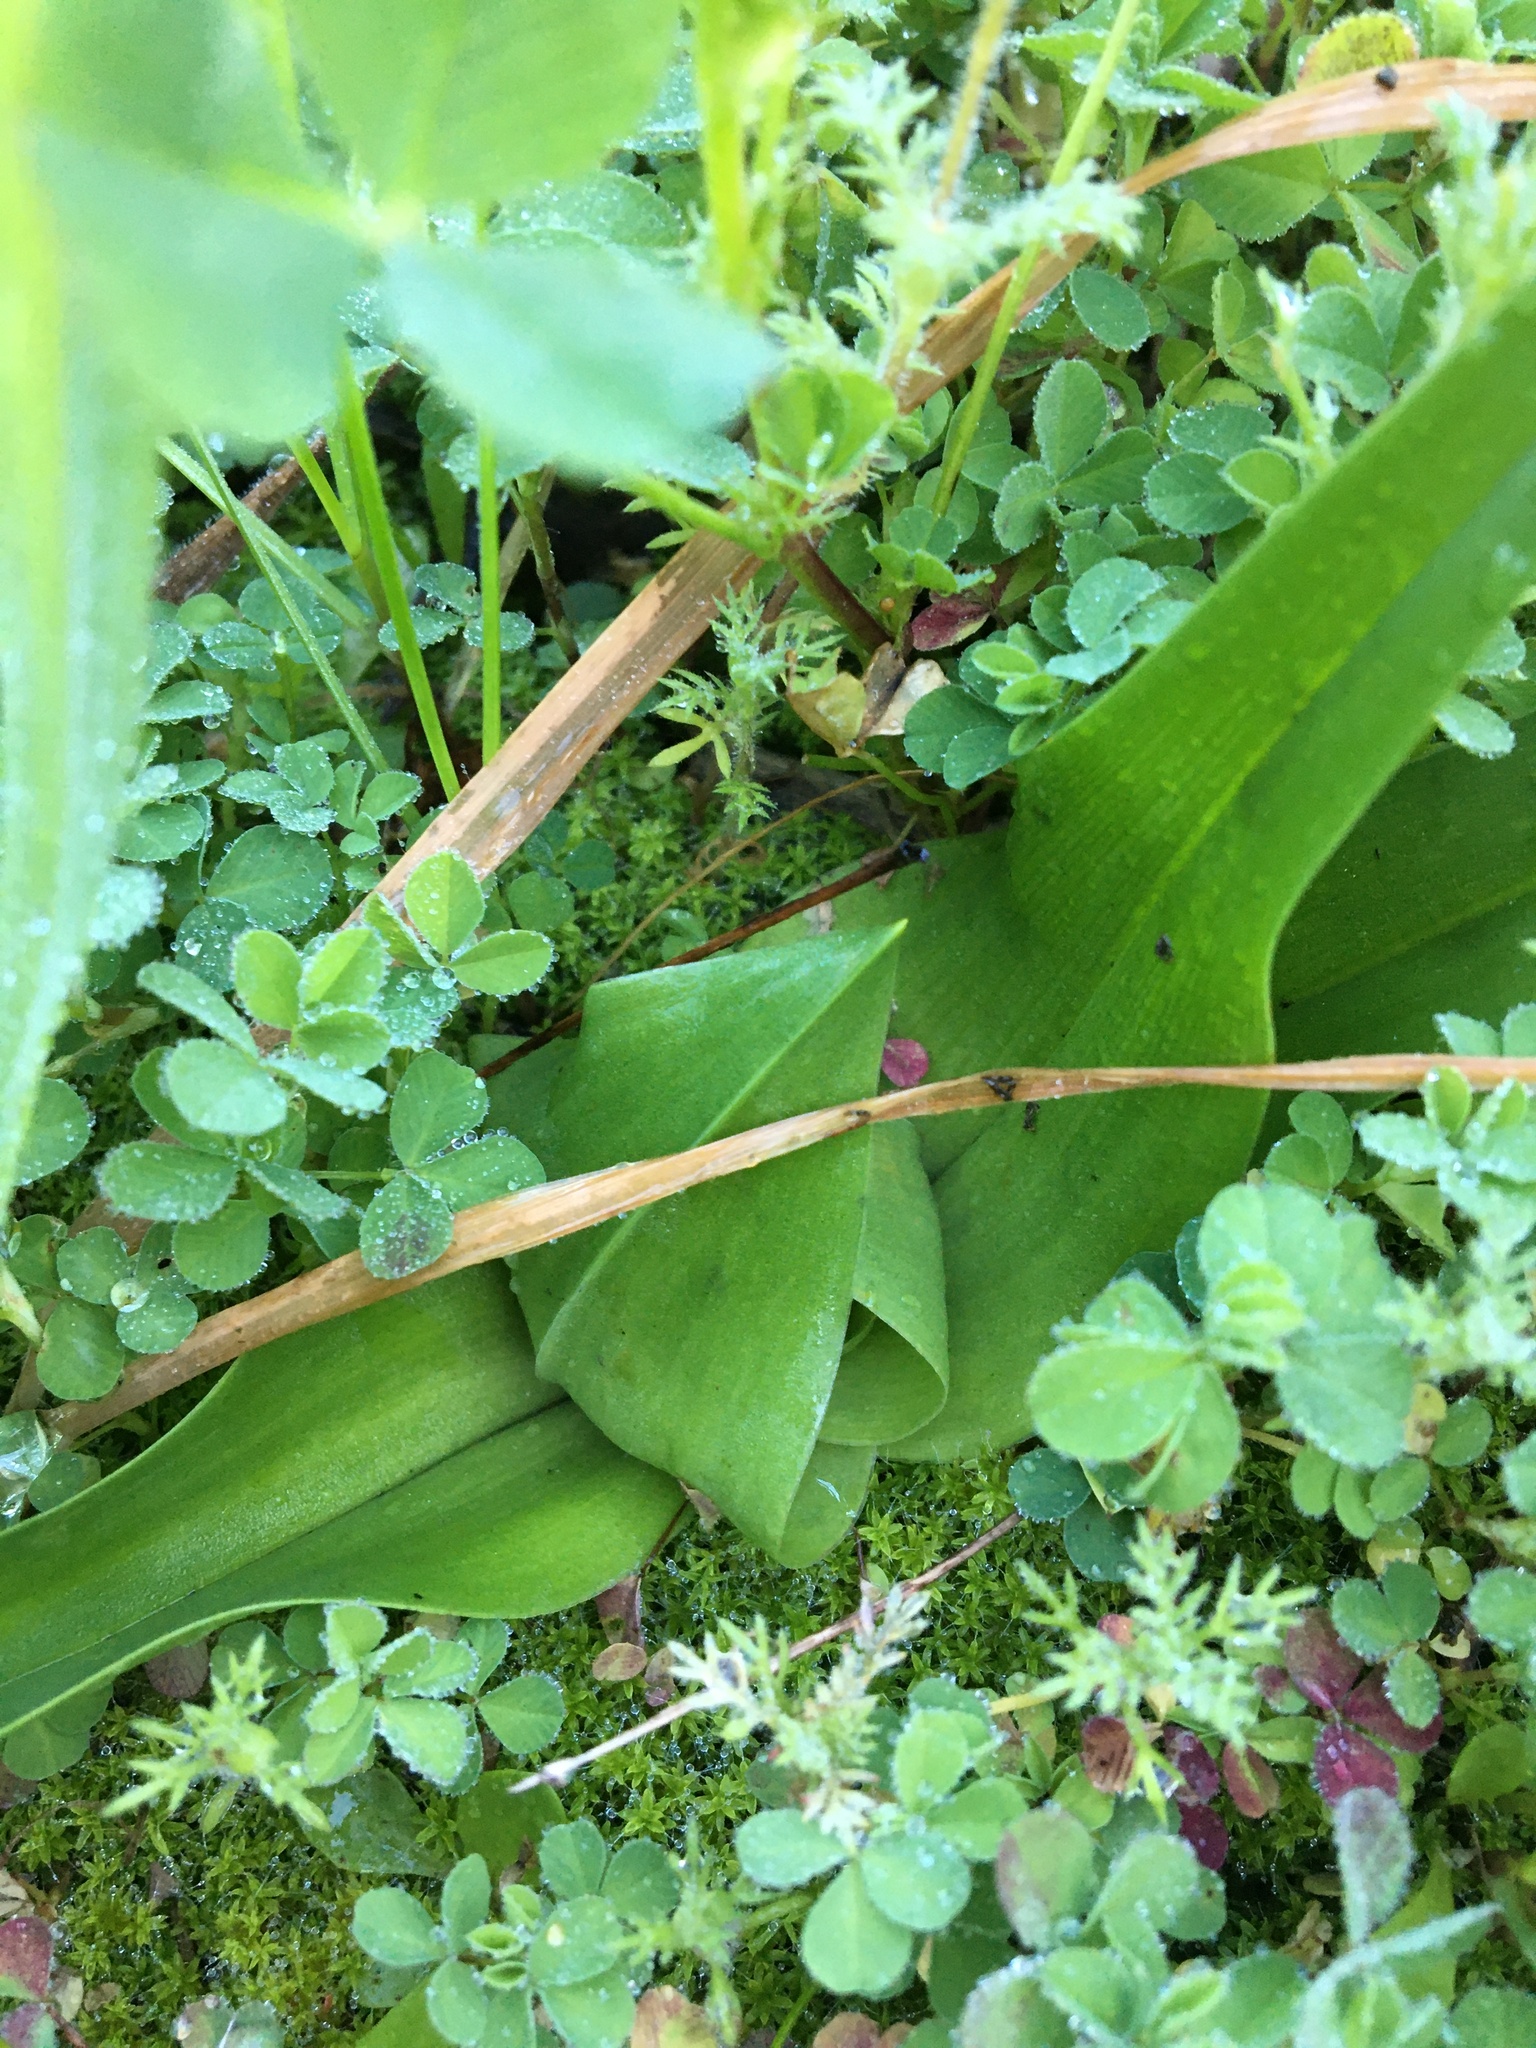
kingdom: Plantae
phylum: Tracheophyta
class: Liliopsida
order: Liliales
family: Colchicaceae
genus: Colchicum
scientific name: Colchicum eucomoides
